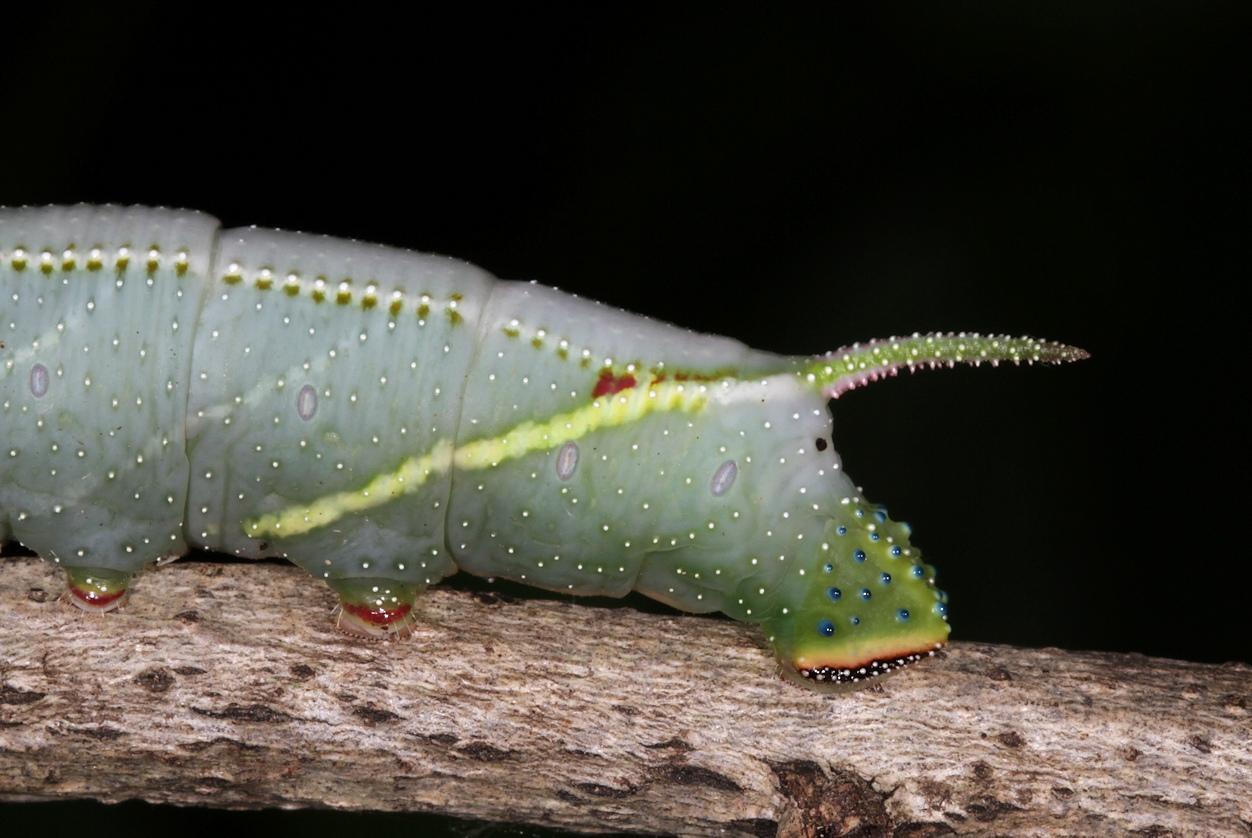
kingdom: Animalia
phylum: Arthropoda
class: Insecta
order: Lepidoptera
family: Sphingidae
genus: Pseudoclanis
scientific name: Pseudoclanis postica
